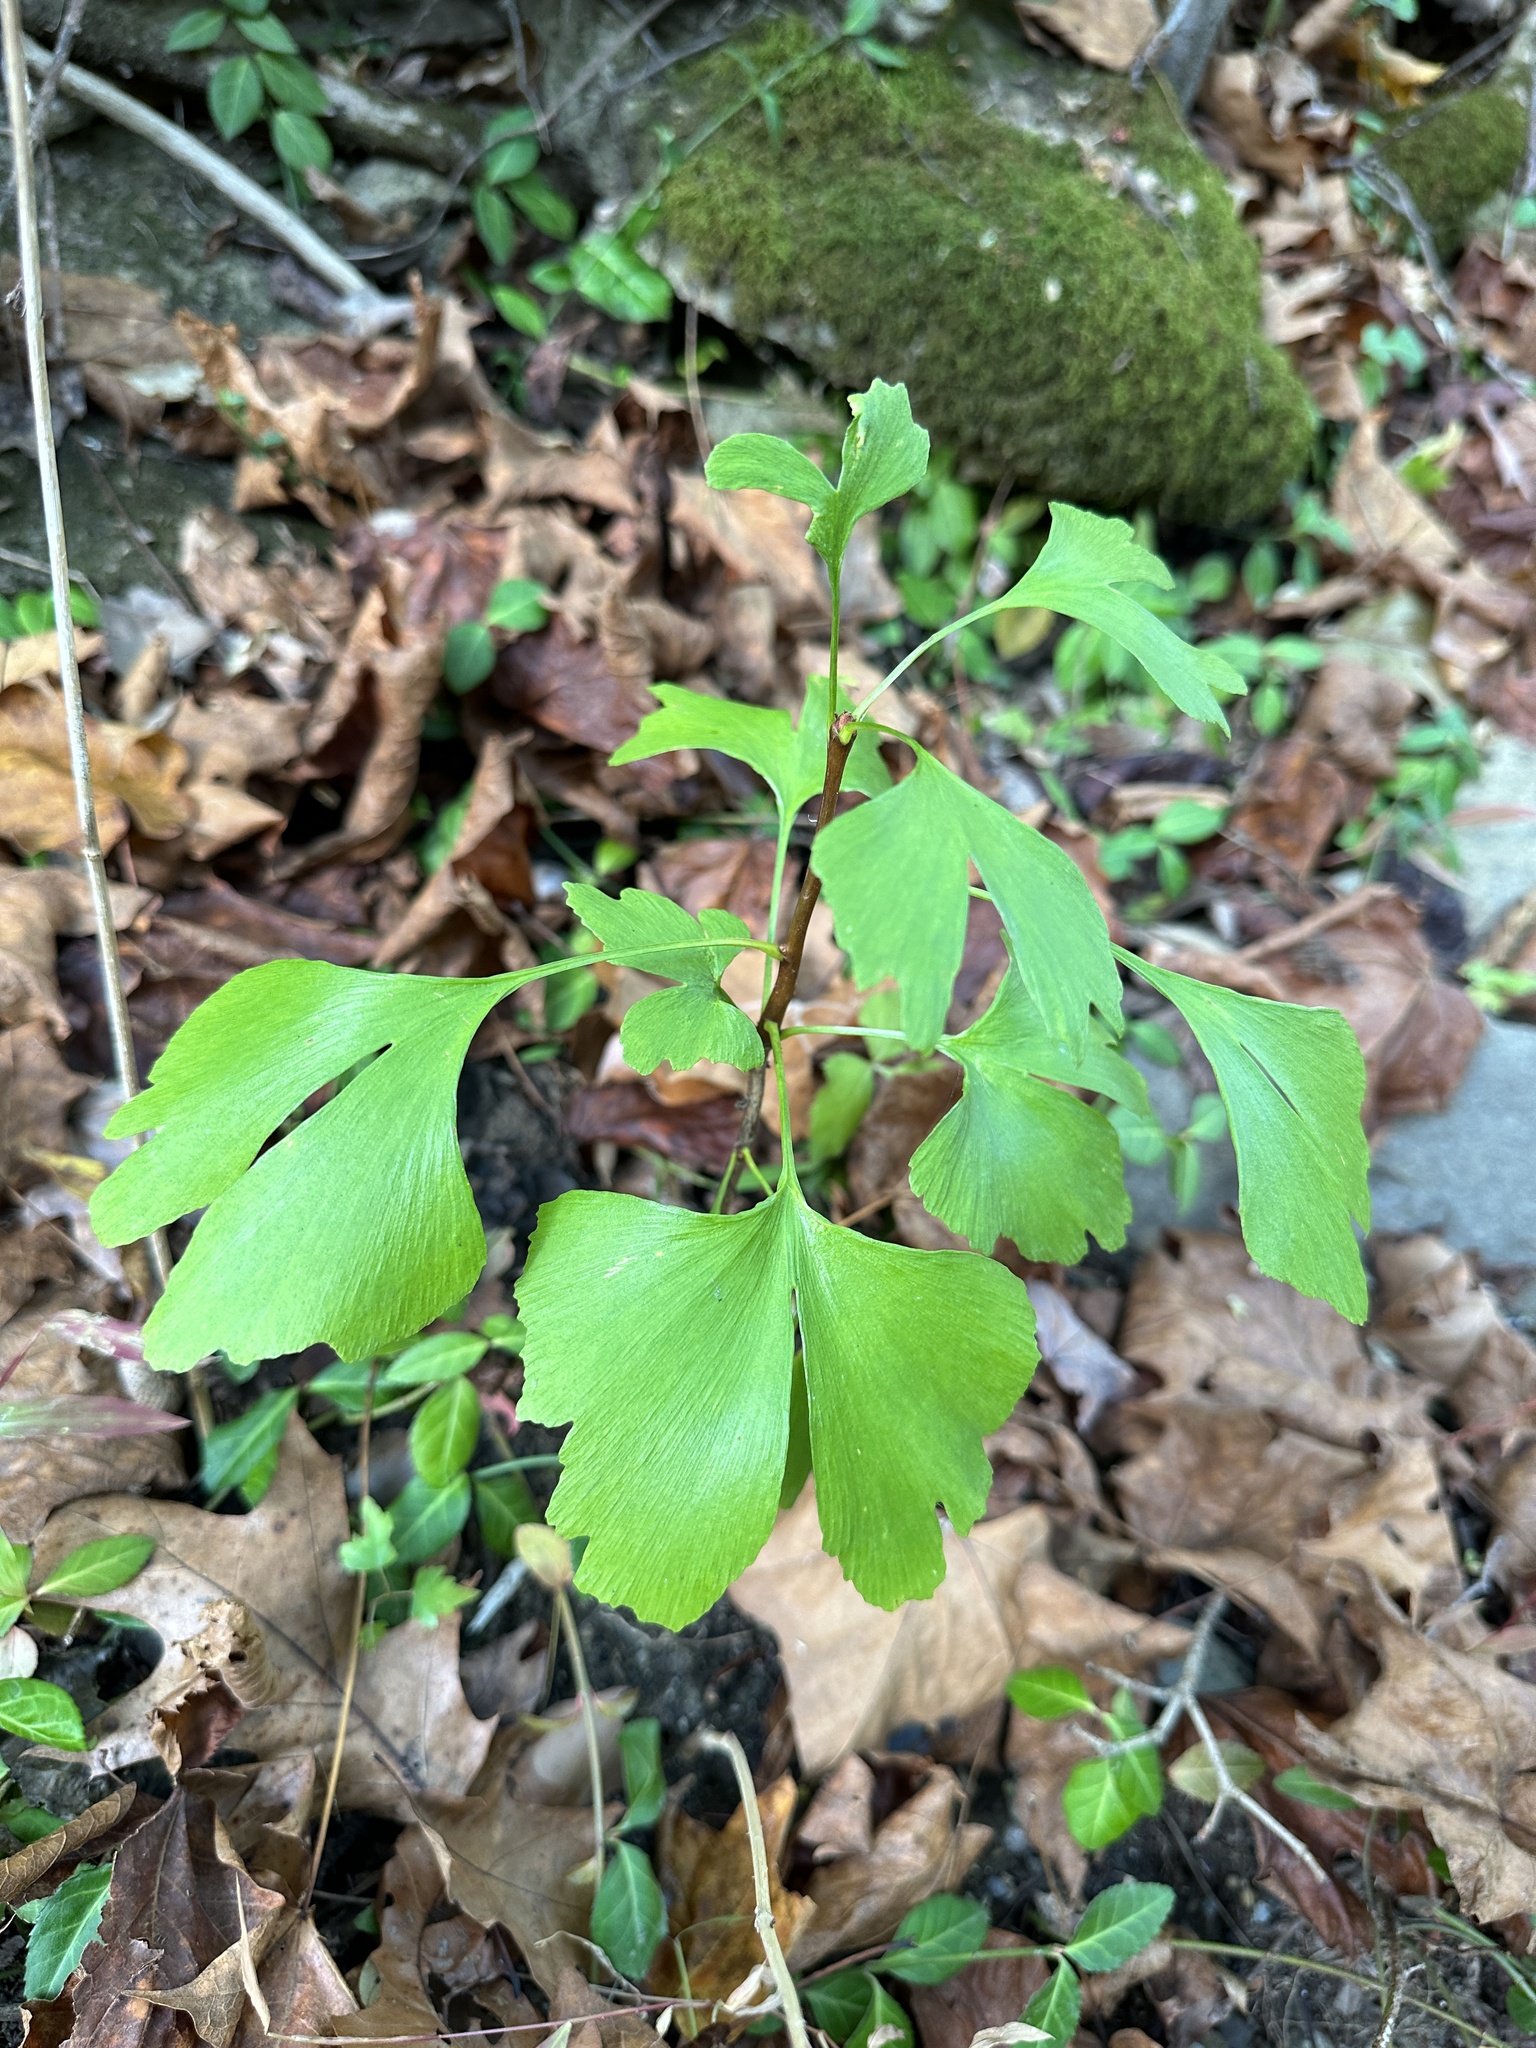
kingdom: Plantae
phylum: Tracheophyta
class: Ginkgoopsida
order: Ginkgoales
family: Ginkgoaceae
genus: Ginkgo
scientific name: Ginkgo biloba
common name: Ginkgo
